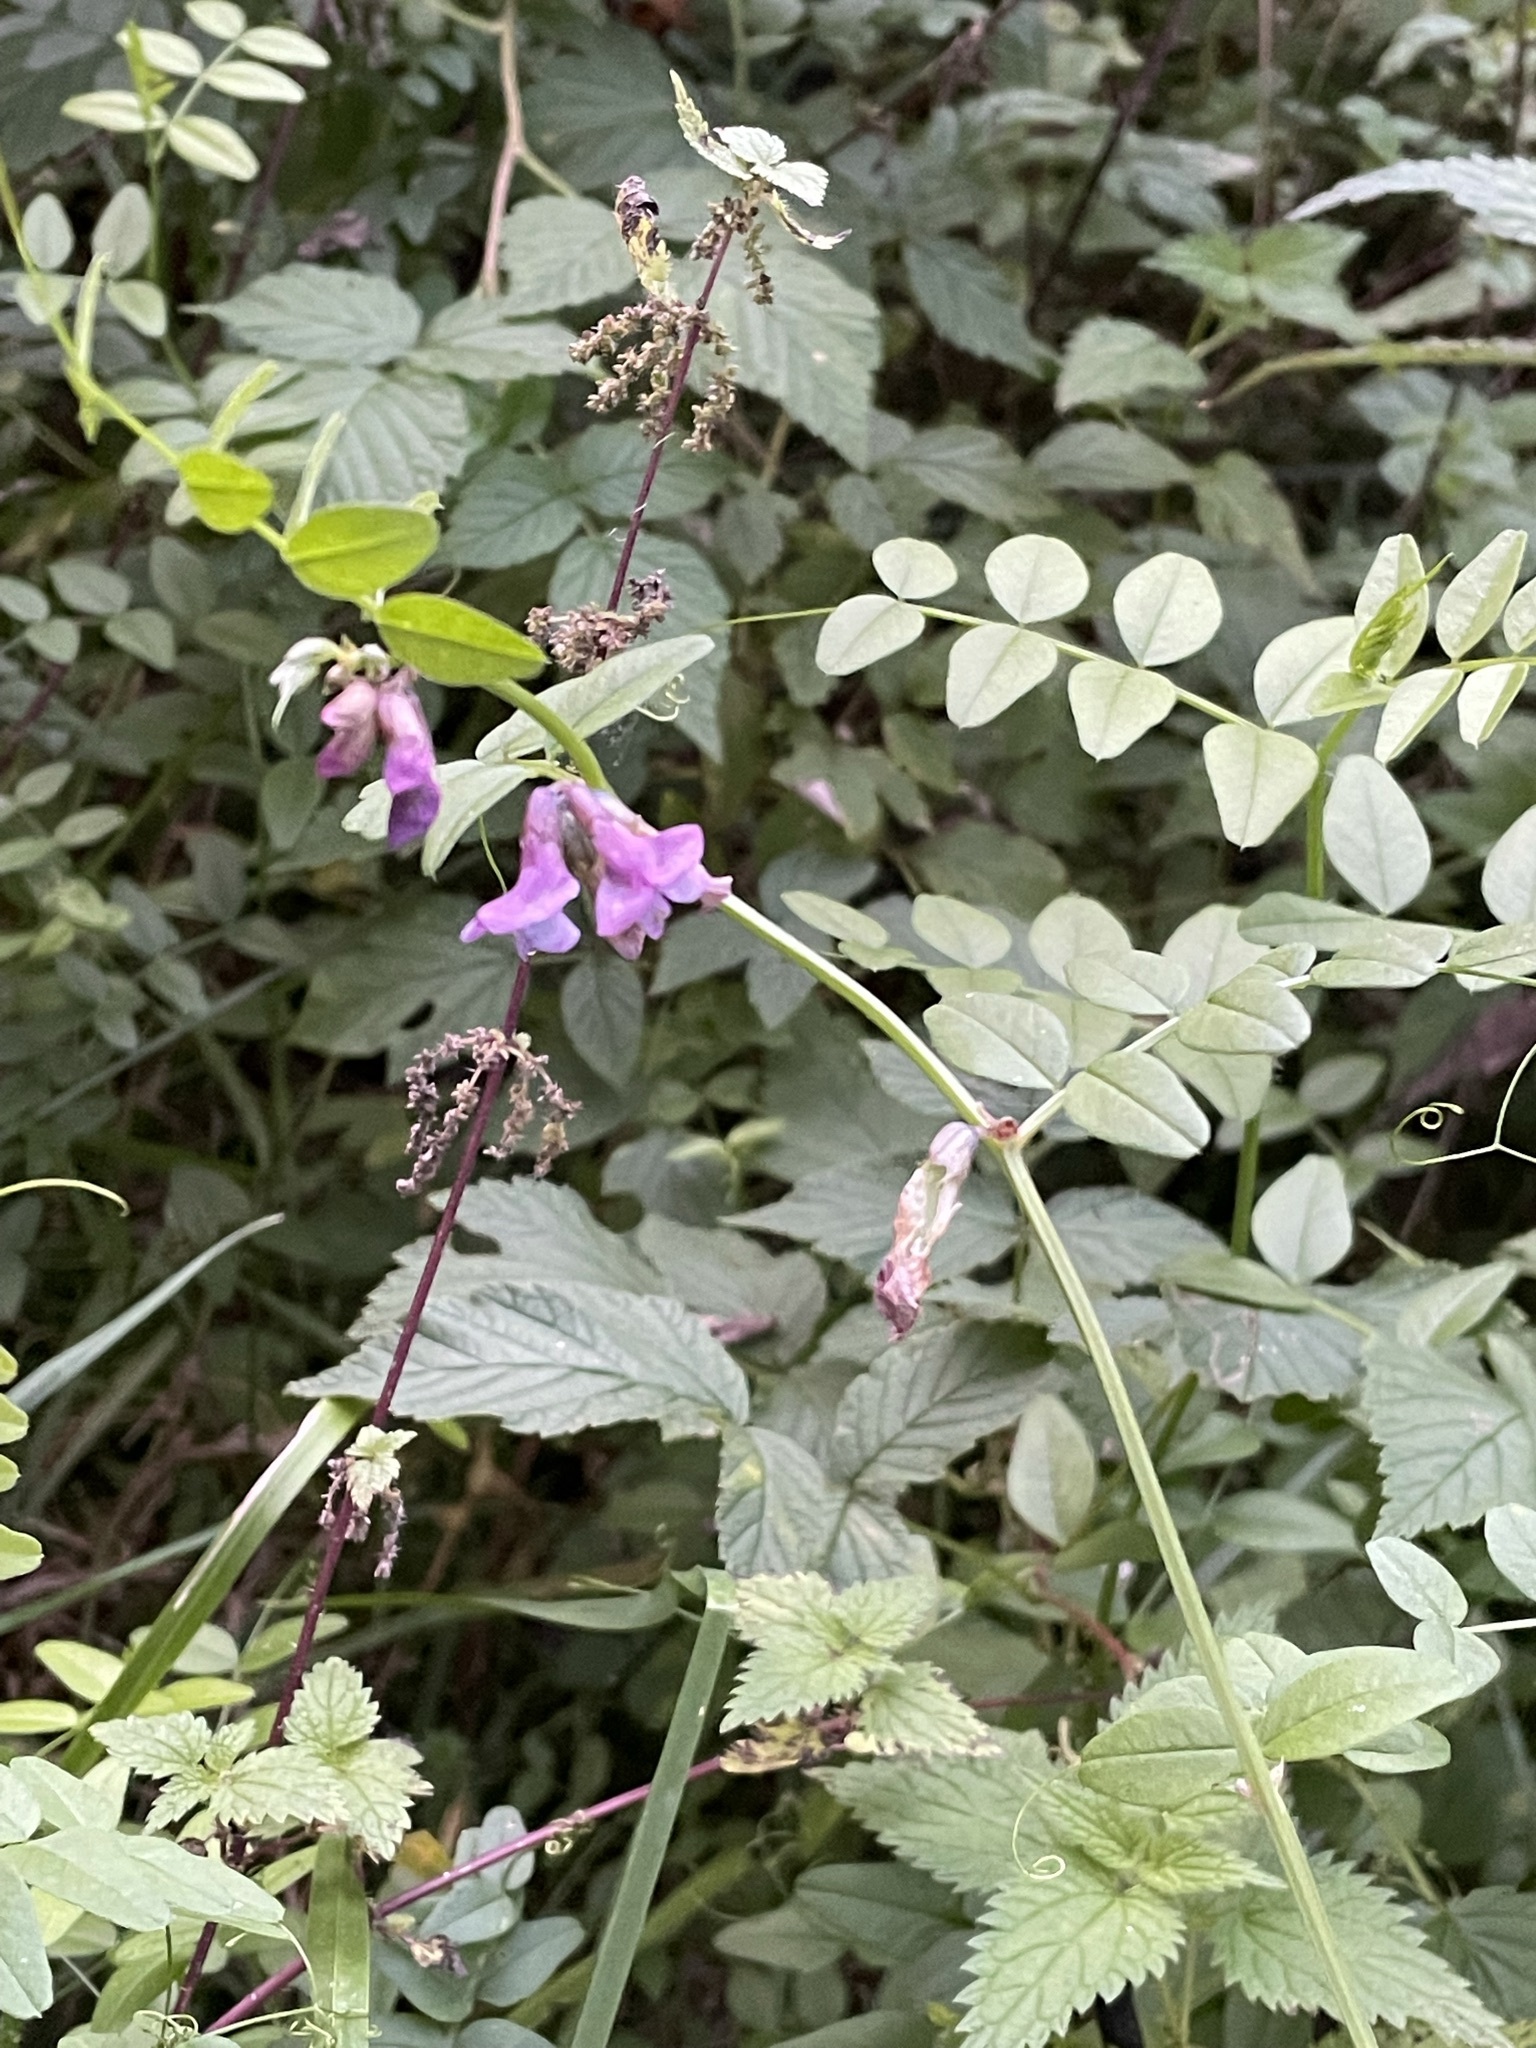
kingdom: Plantae
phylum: Tracheophyta
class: Magnoliopsida
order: Fabales
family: Fabaceae
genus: Vicia
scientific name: Vicia sepium
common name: Bush vetch
